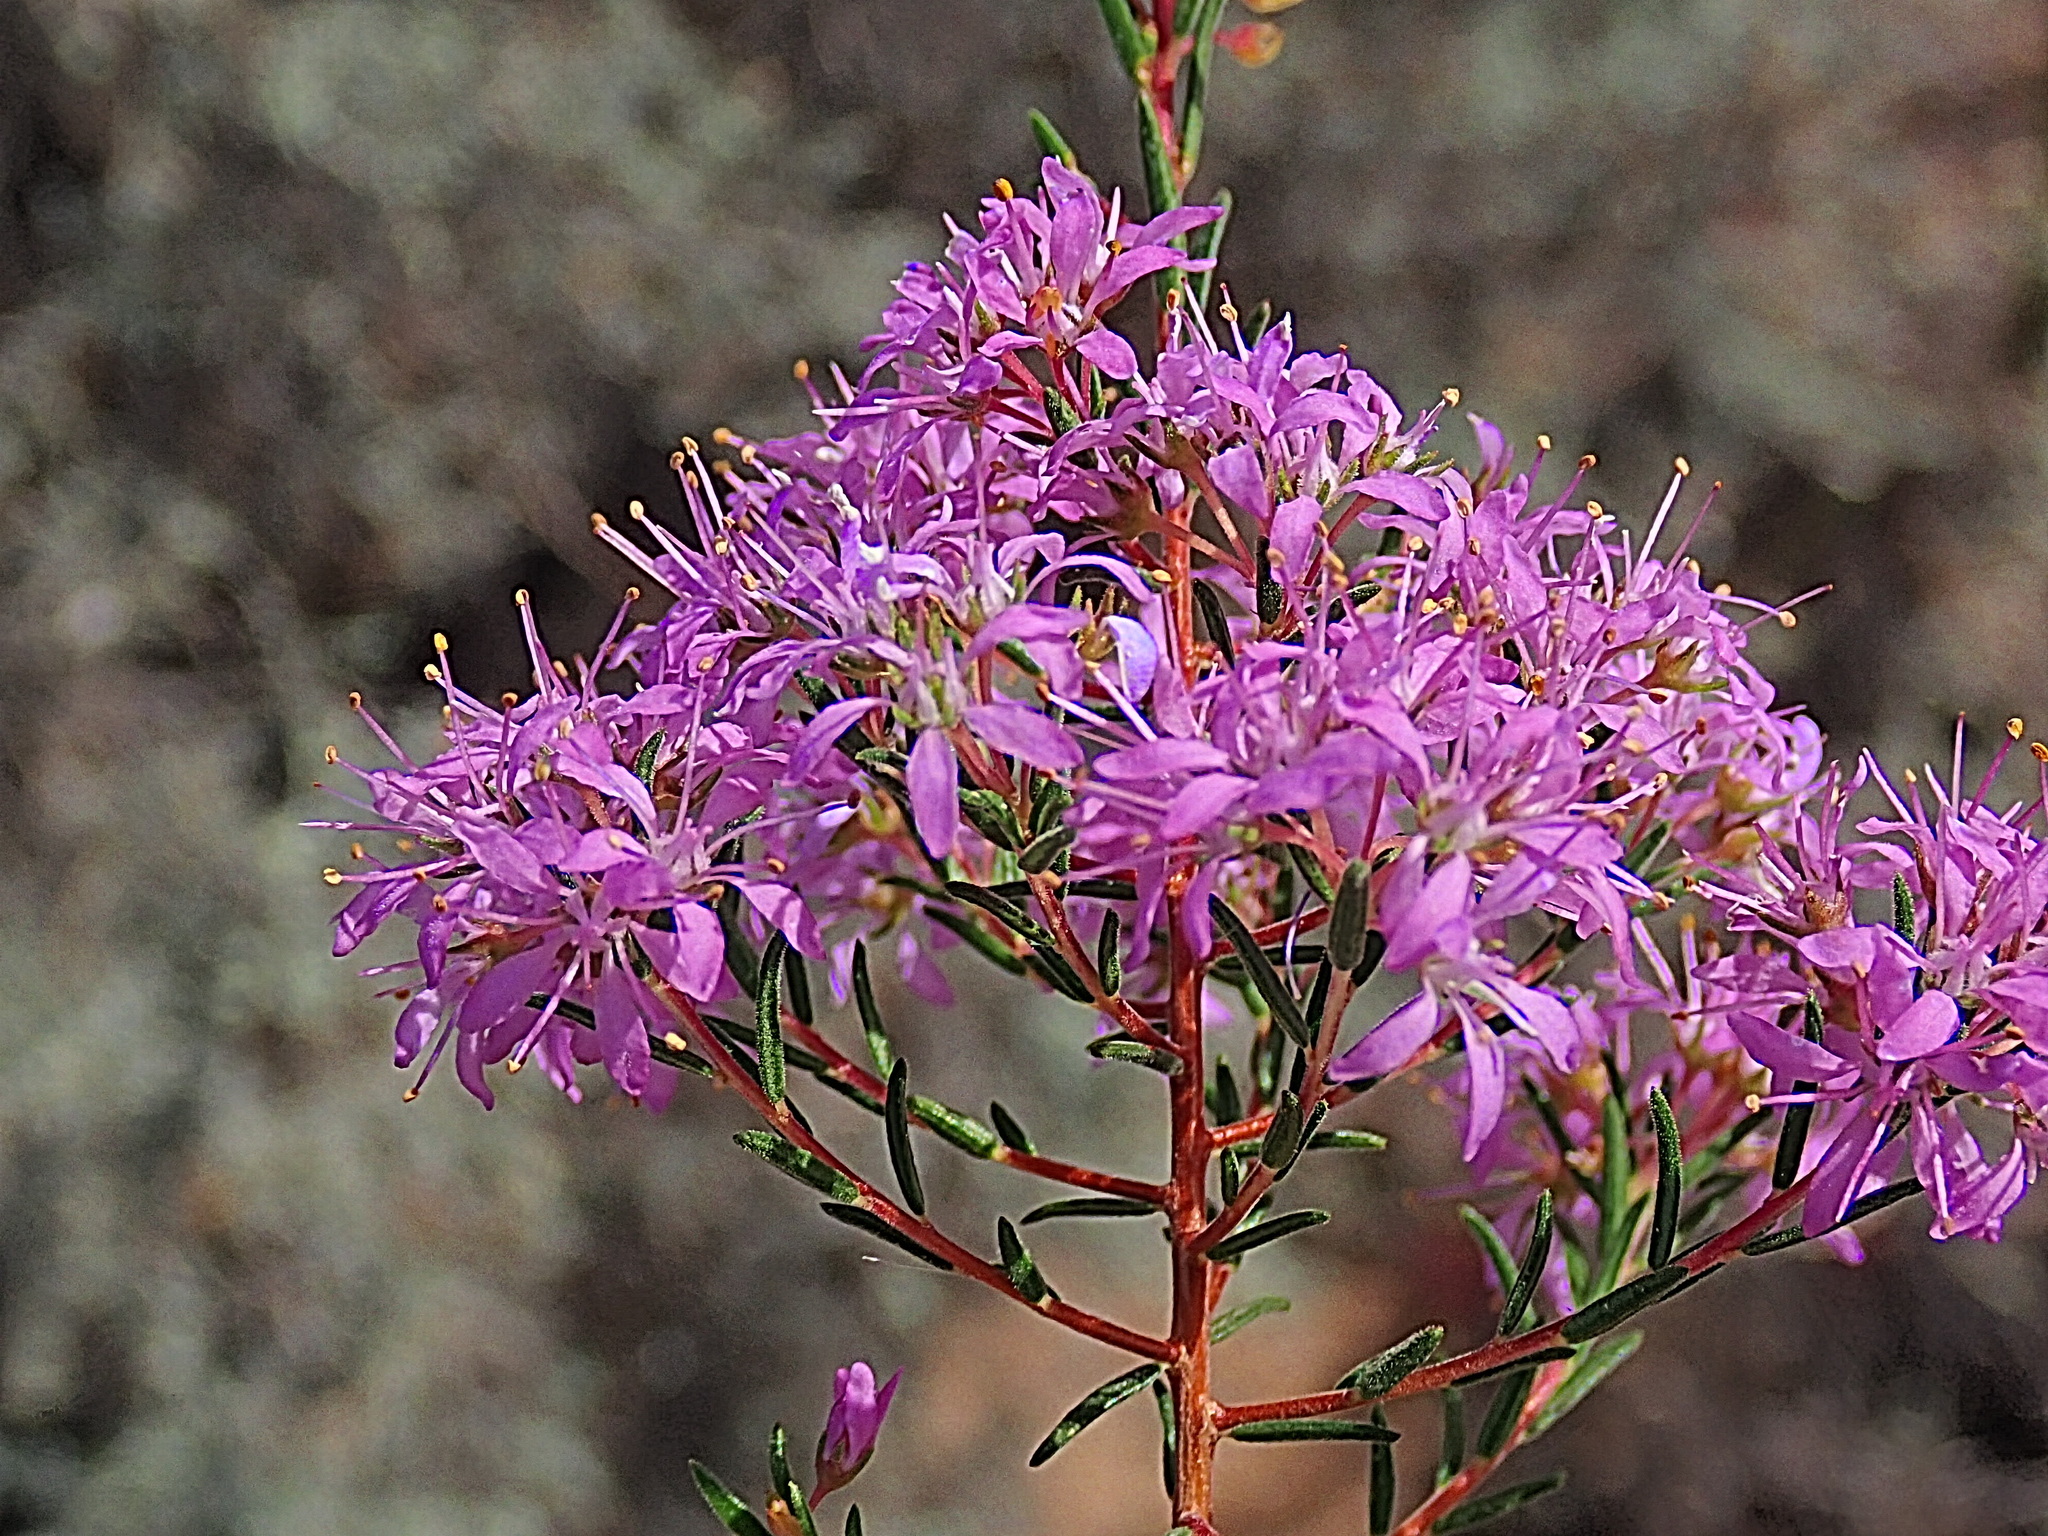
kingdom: Plantae
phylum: Tracheophyta
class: Magnoliopsida
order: Sapindales
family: Rutaceae
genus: Agathosma
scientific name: Agathosma
